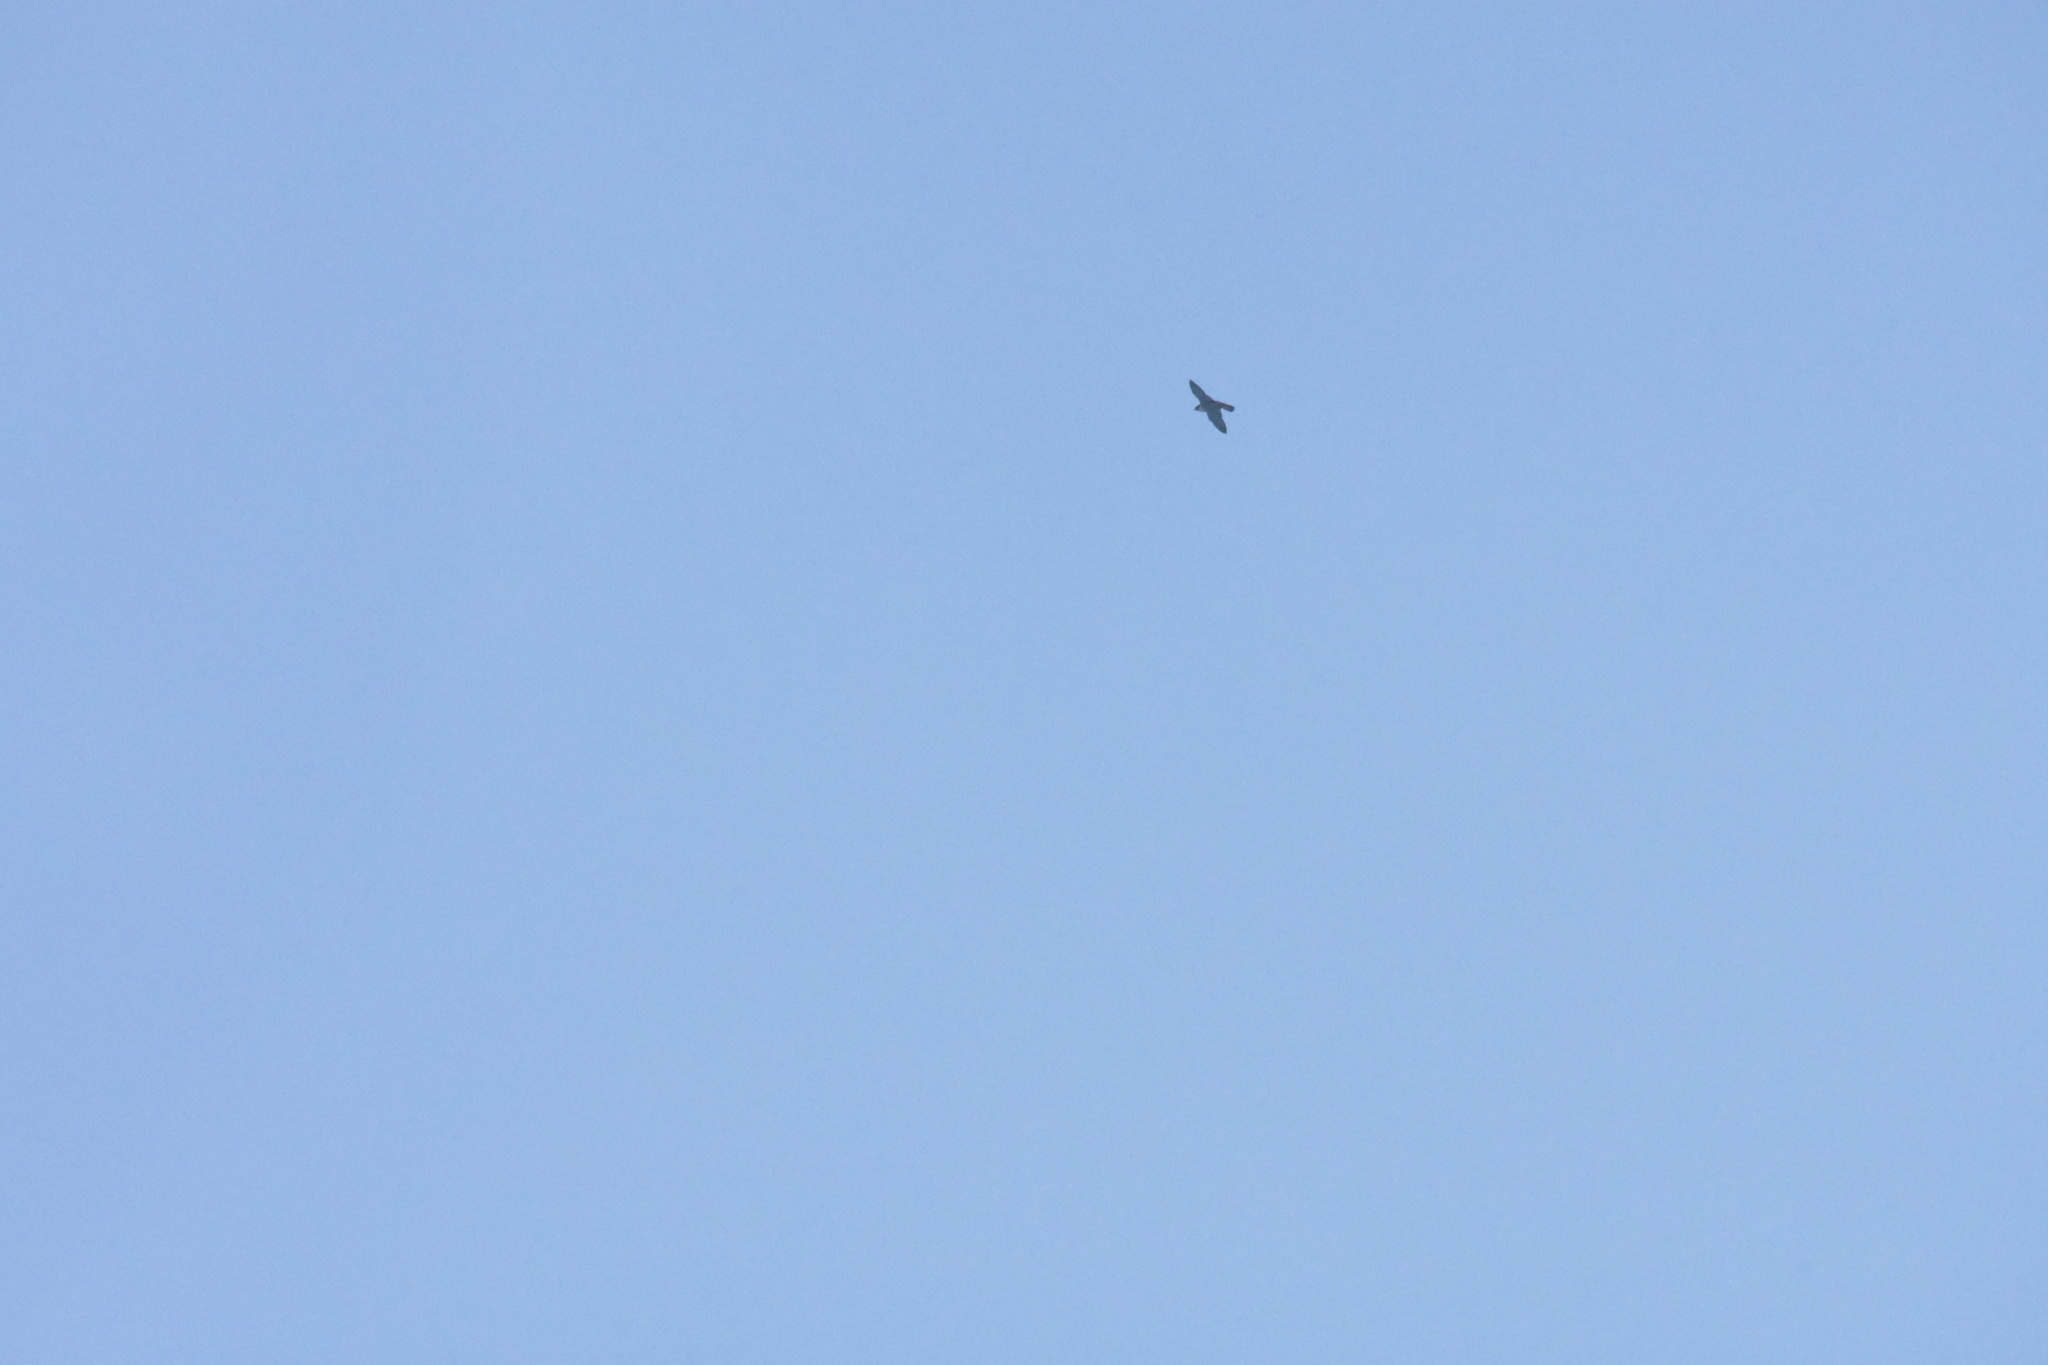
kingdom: Animalia
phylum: Chordata
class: Aves
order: Falconiformes
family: Falconidae
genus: Falco
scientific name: Falco peregrinus
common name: Peregrine falcon
